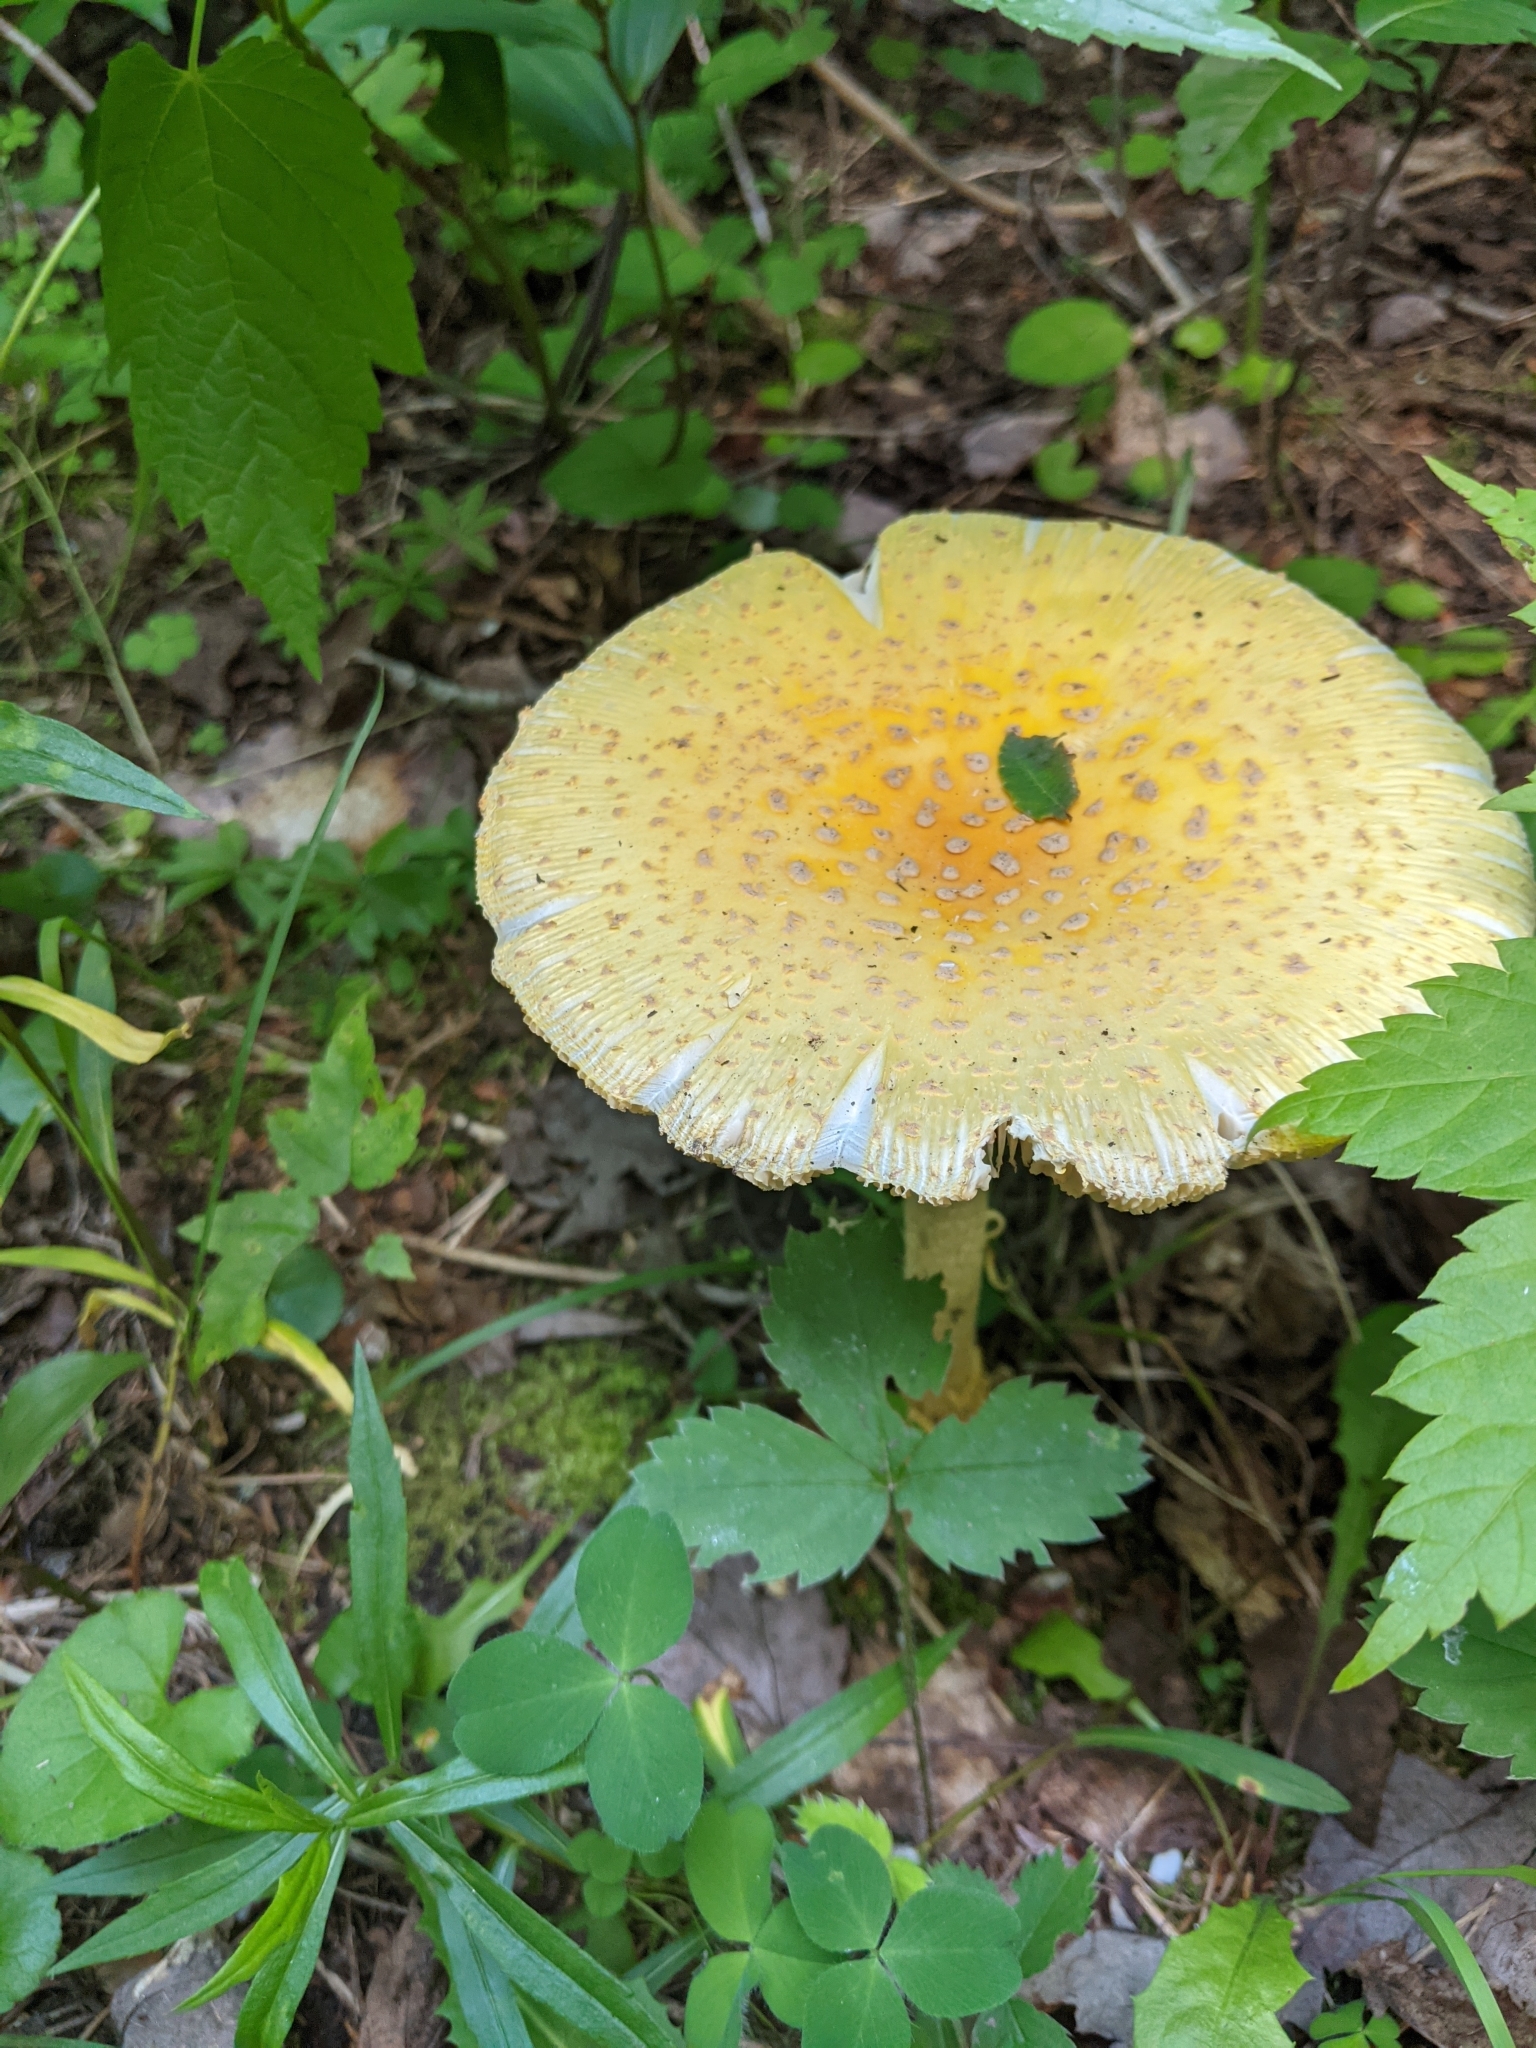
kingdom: Fungi
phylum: Basidiomycota
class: Agaricomycetes
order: Agaricales
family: Amanitaceae
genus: Amanita
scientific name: Amanita muscaria
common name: Fly agaric
